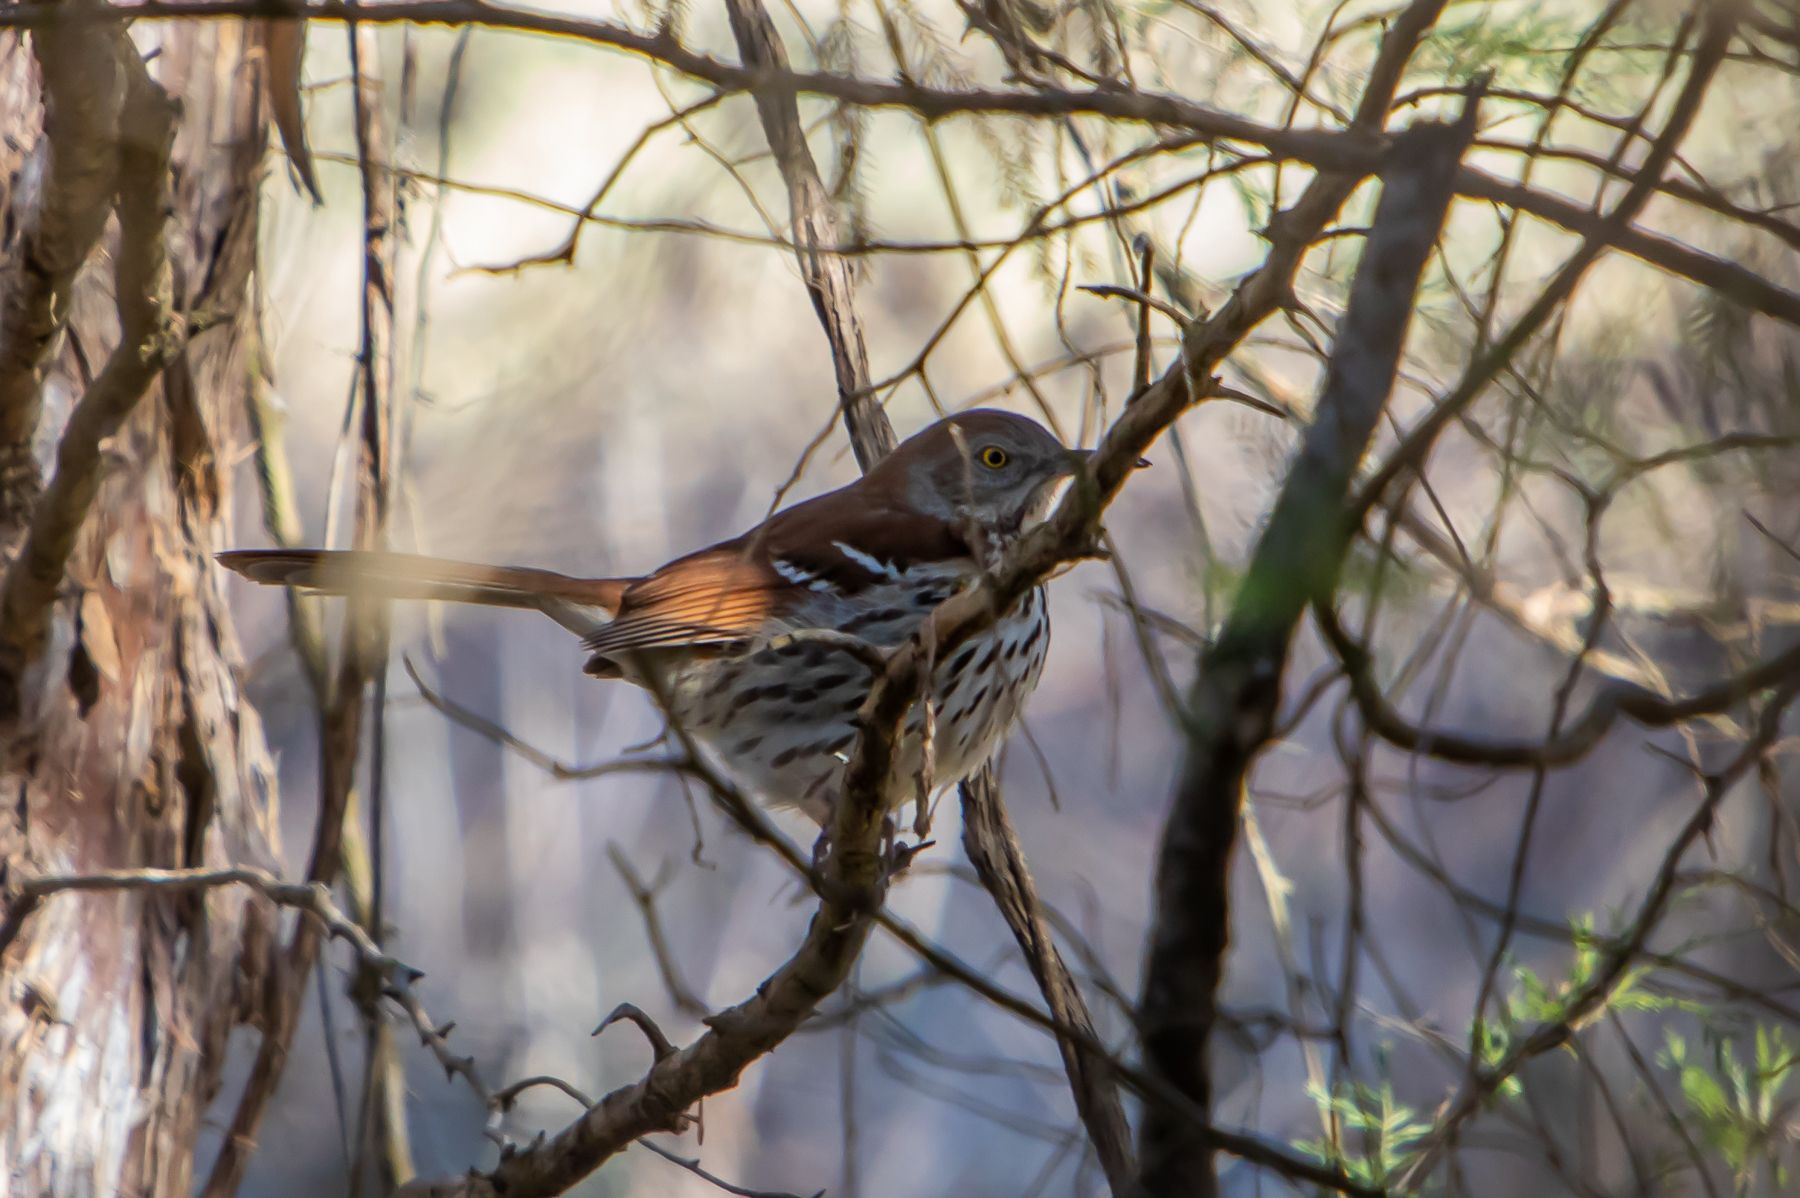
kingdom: Animalia
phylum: Chordata
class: Aves
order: Passeriformes
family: Mimidae
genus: Toxostoma
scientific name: Toxostoma rufum
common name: Brown thrasher
